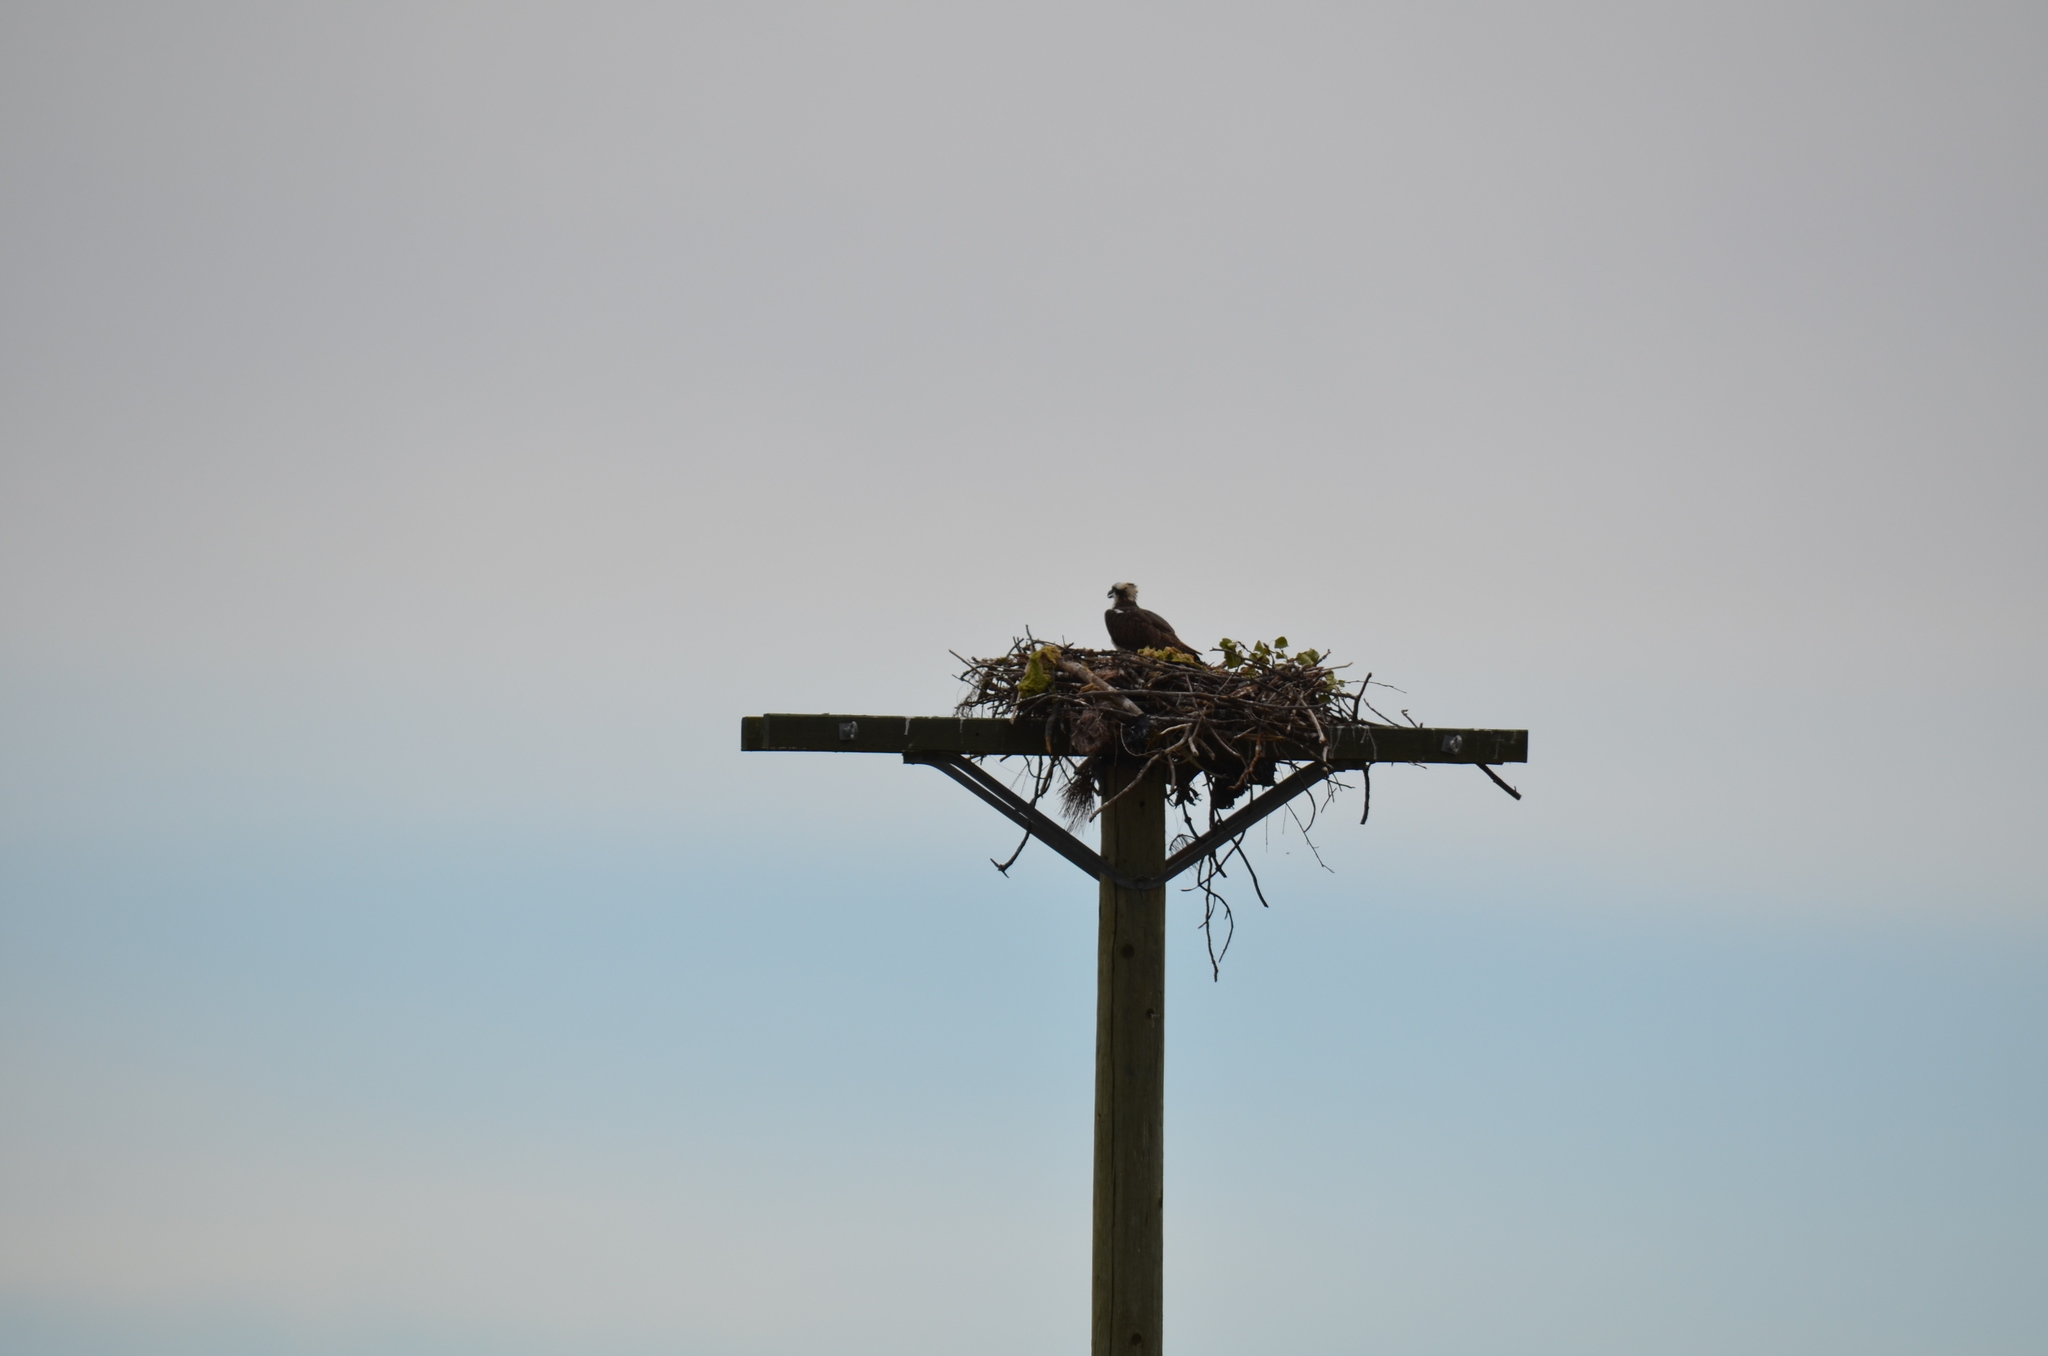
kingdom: Animalia
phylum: Chordata
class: Aves
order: Accipitriformes
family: Pandionidae
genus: Pandion
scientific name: Pandion haliaetus
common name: Osprey
